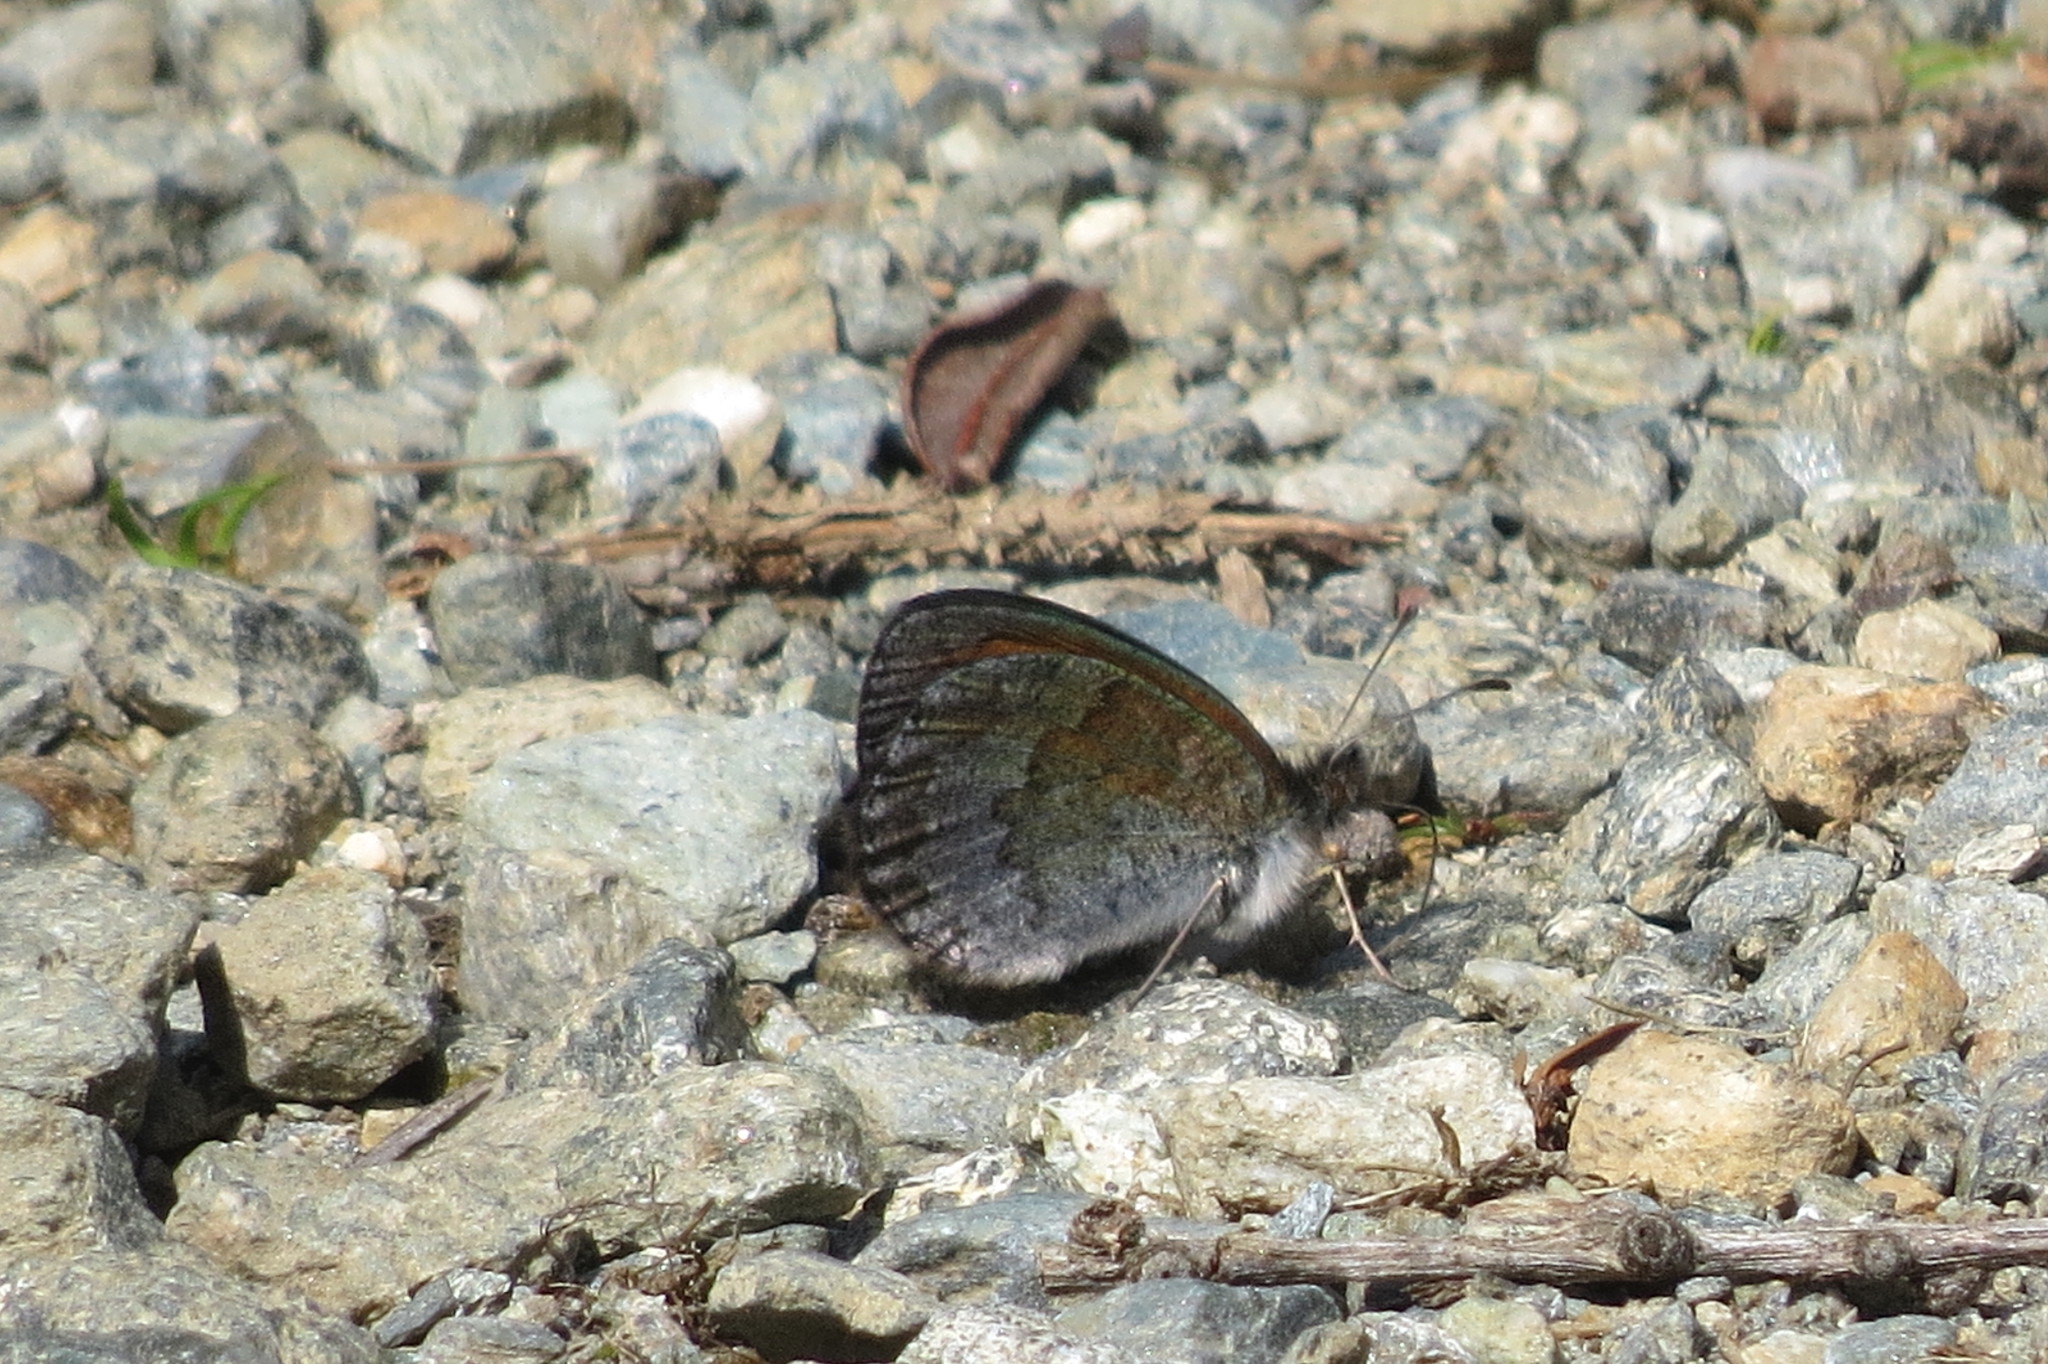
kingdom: Animalia
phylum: Arthropoda
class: Insecta
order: Lepidoptera
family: Nymphalidae
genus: Erebia
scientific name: Erebia tyndarus
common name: Swiss brassy ringlet
